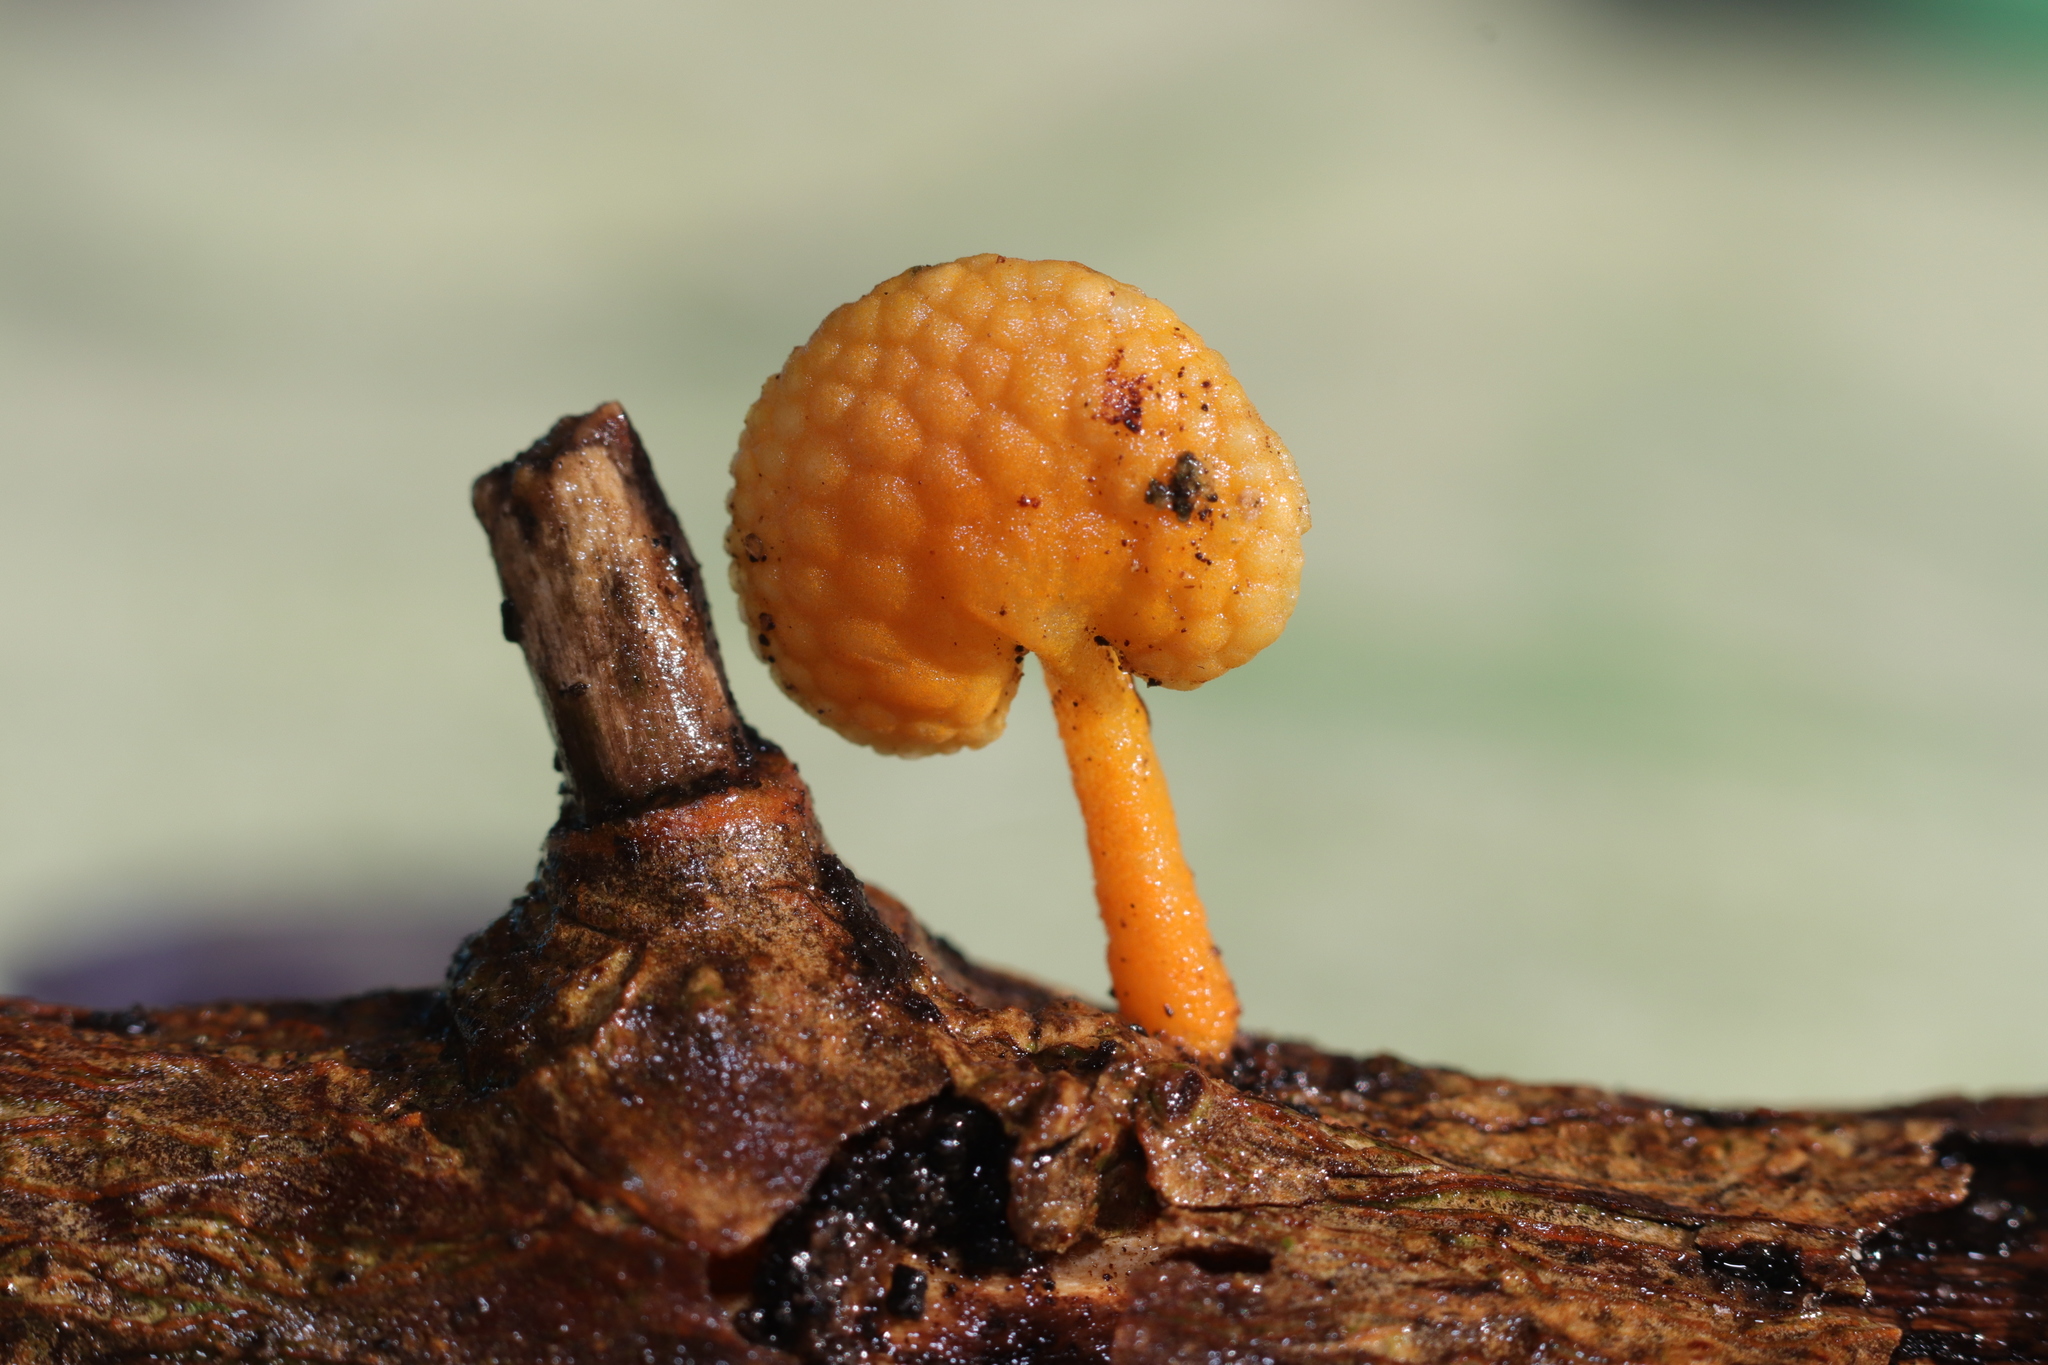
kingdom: Fungi
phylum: Basidiomycota
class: Agaricomycetes
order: Agaricales
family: Mycenaceae
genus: Favolaschia
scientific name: Favolaschia claudopus
